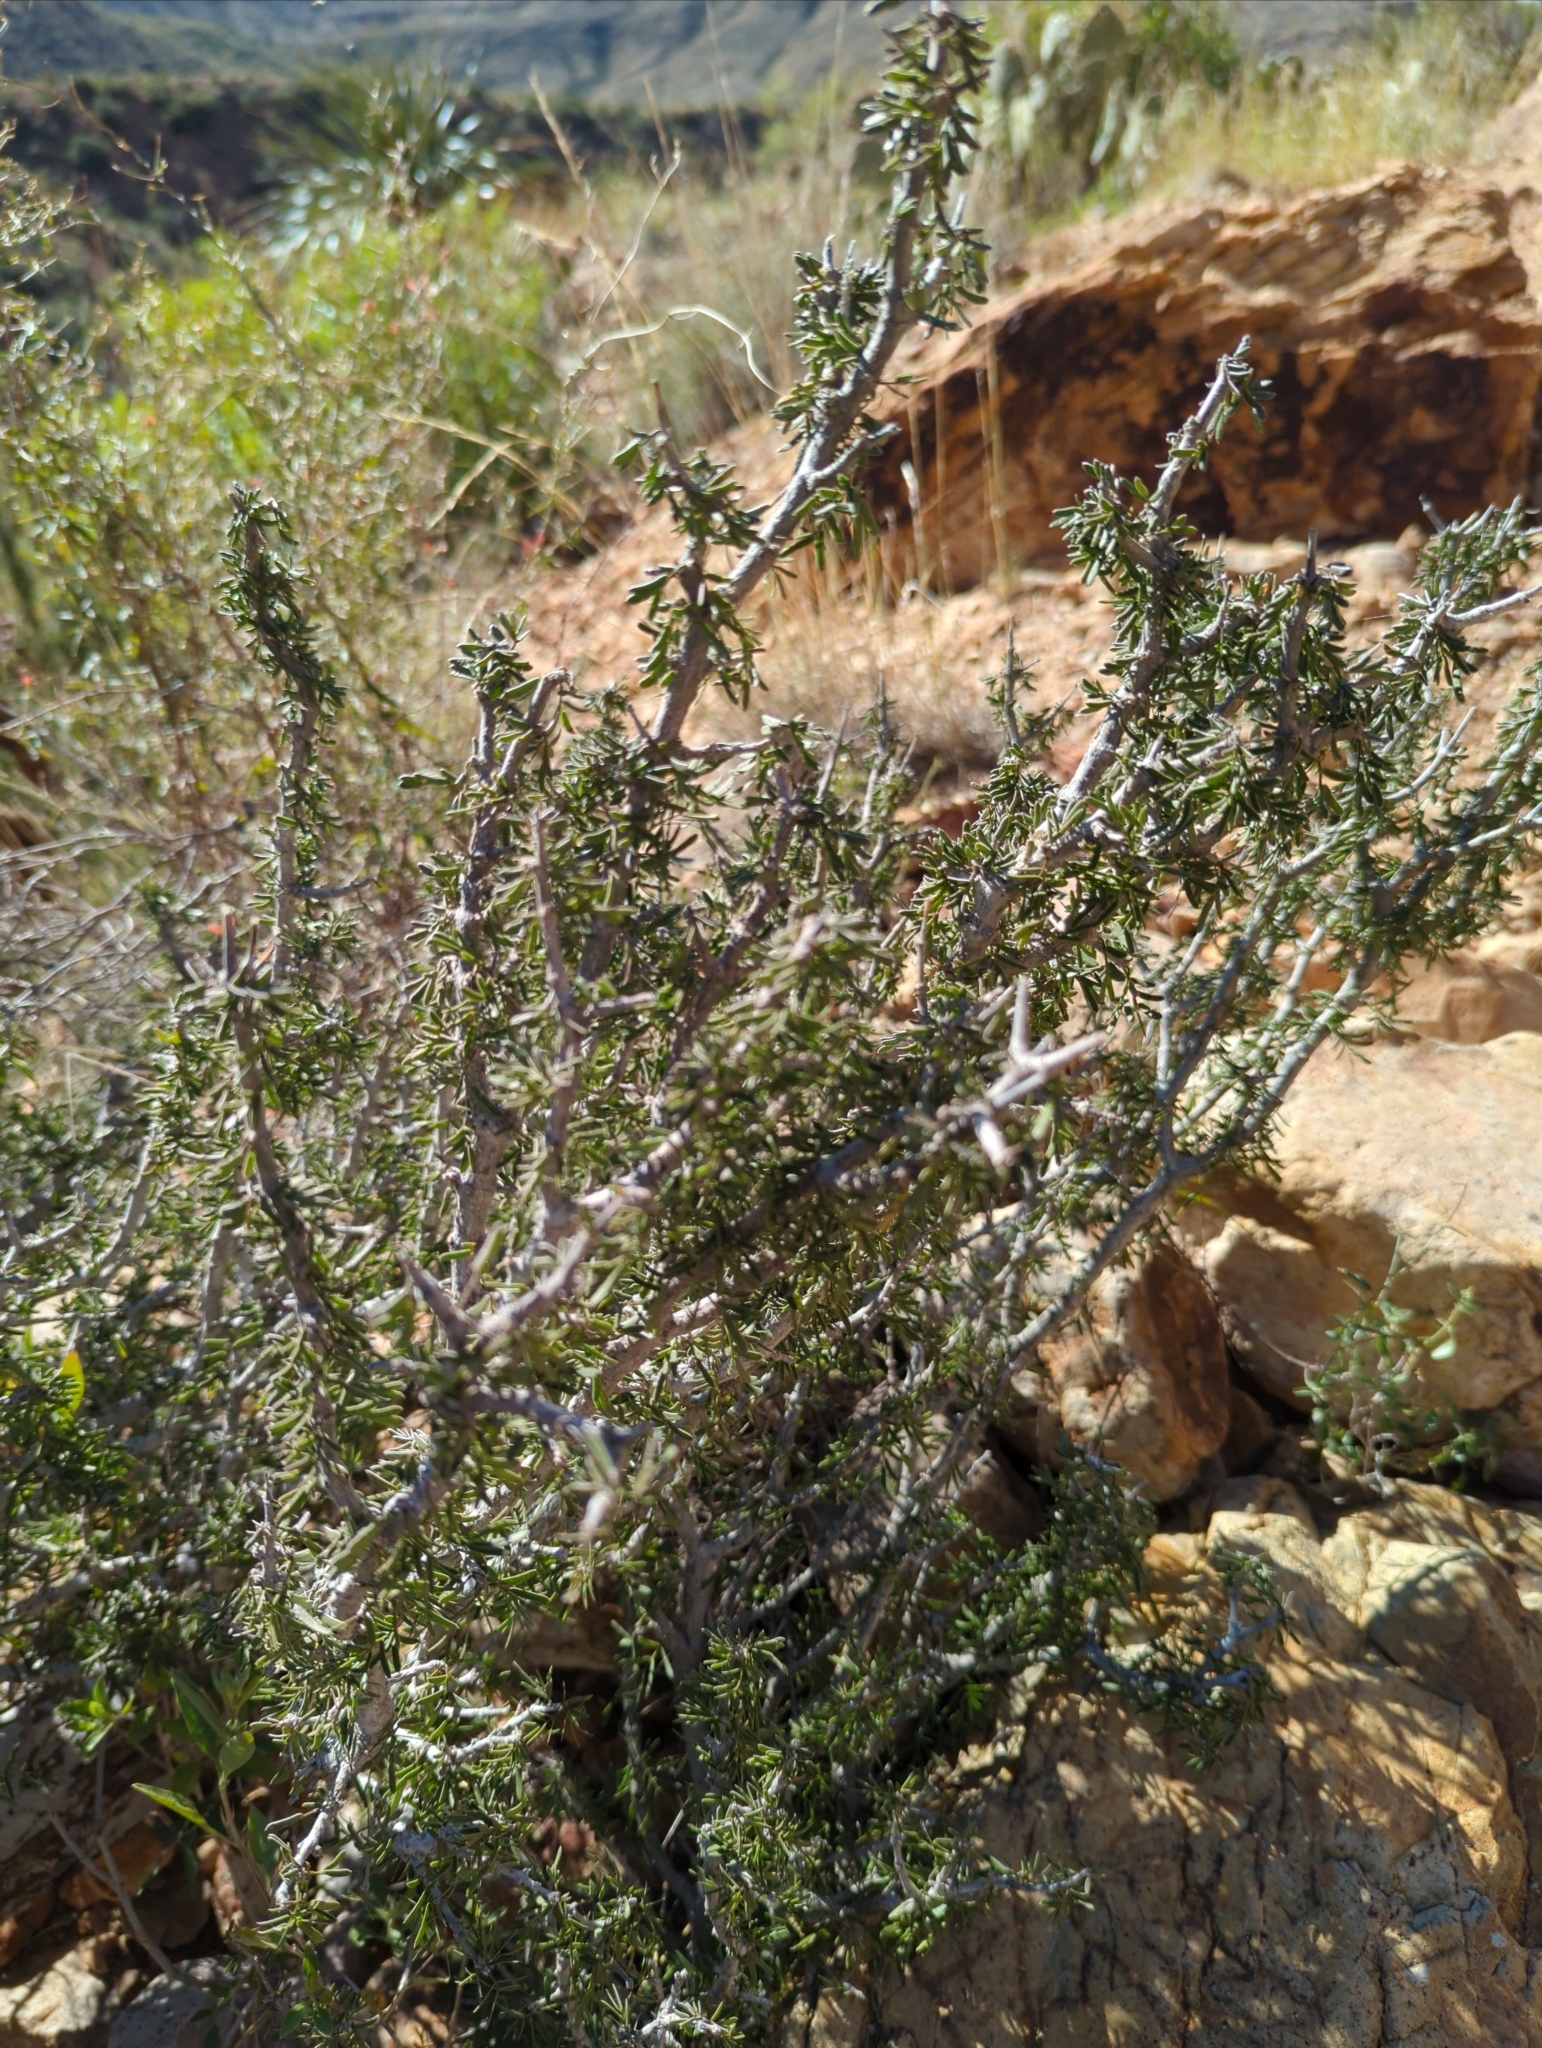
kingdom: Plantae
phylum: Tracheophyta
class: Magnoliopsida
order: Zygophyllales
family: Zygophyllaceae
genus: Porlieria
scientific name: Porlieria angustifolia
